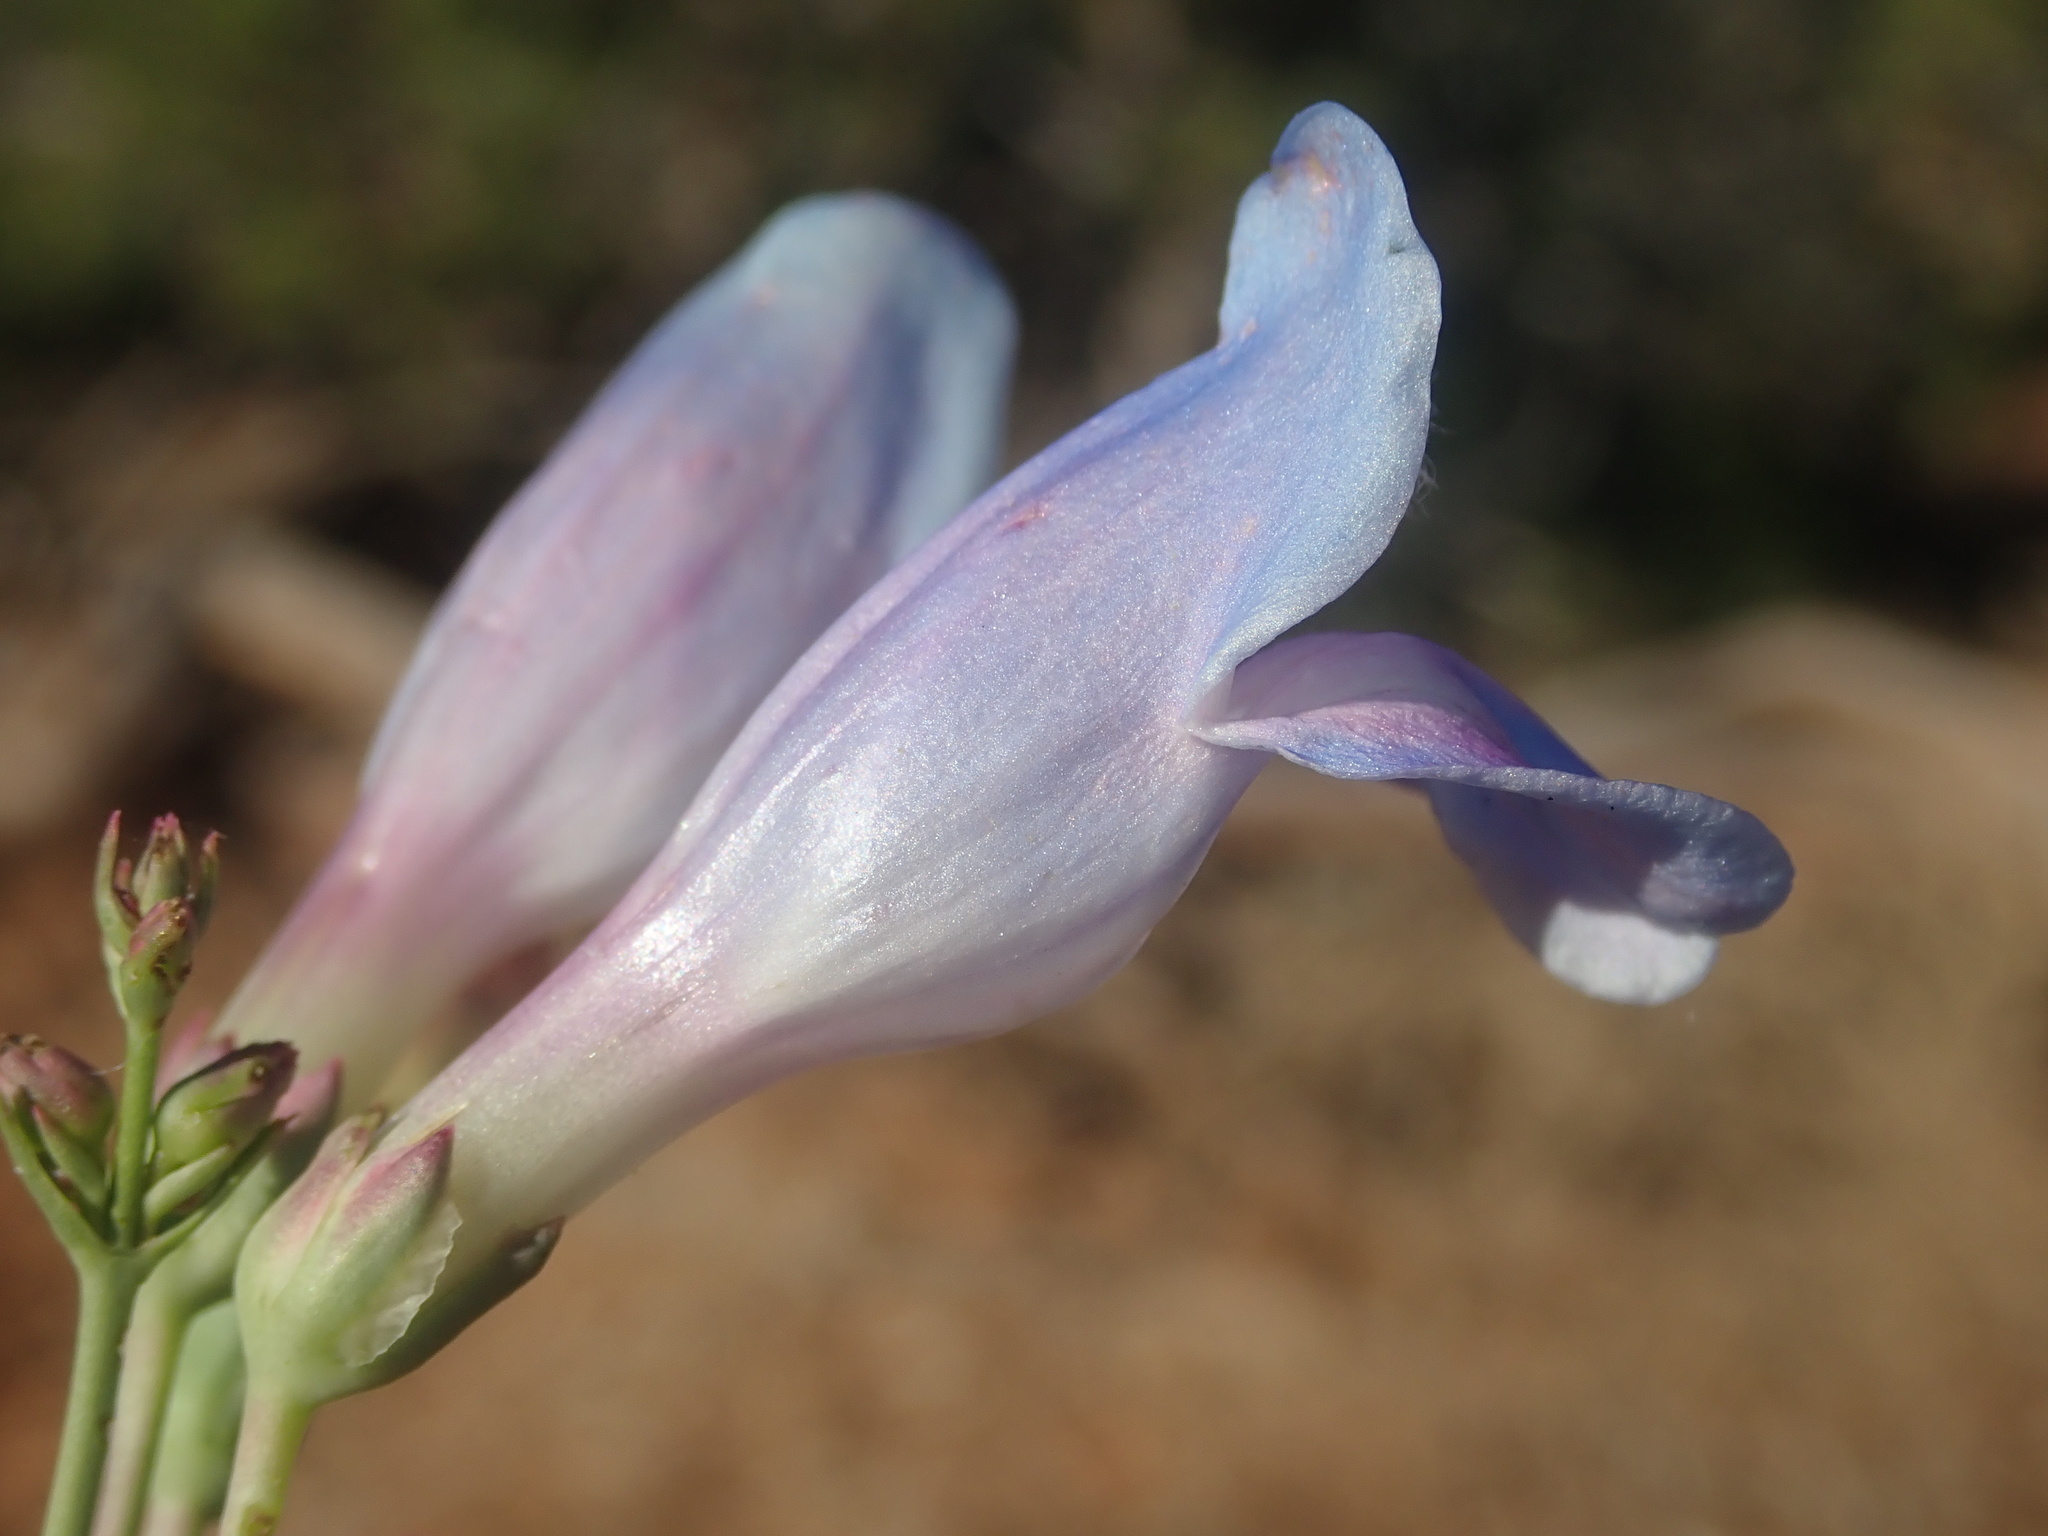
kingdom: Plantae
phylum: Tracheophyta
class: Magnoliopsida
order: Lamiales
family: Plantaginaceae
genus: Penstemon
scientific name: Penstemon comarrhenus
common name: Dusty penstemon
